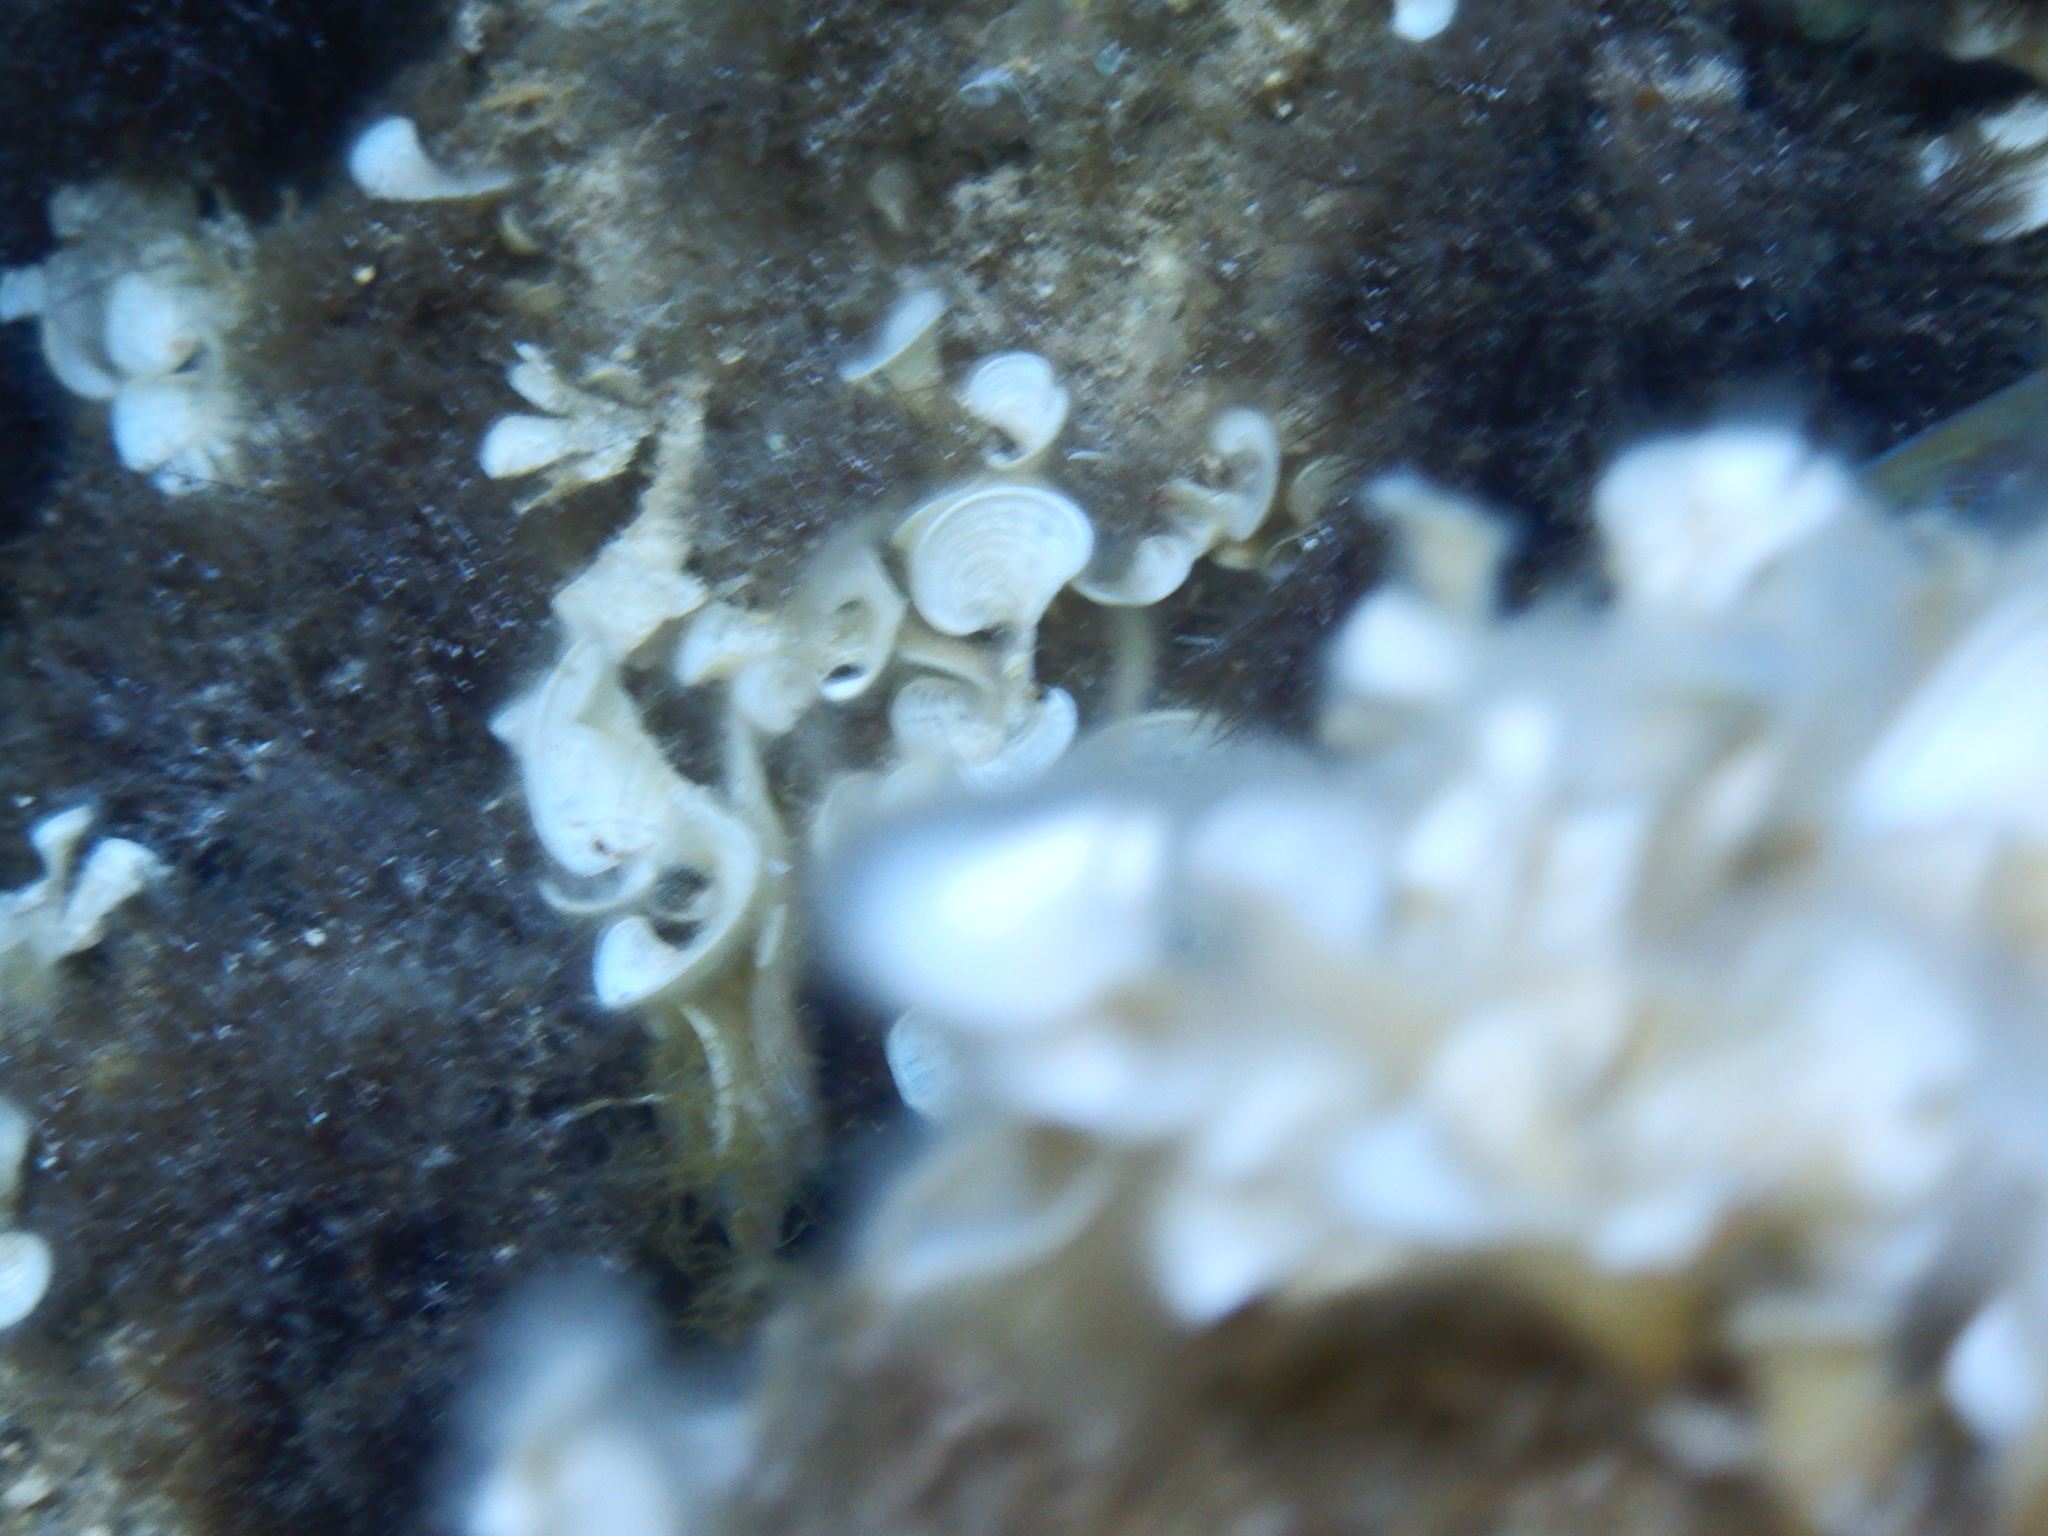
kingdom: Chromista
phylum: Ochrophyta
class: Phaeophyceae
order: Dictyotales
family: Dictyotaceae
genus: Padina
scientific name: Padina pavonica
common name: Turkey feather alga
